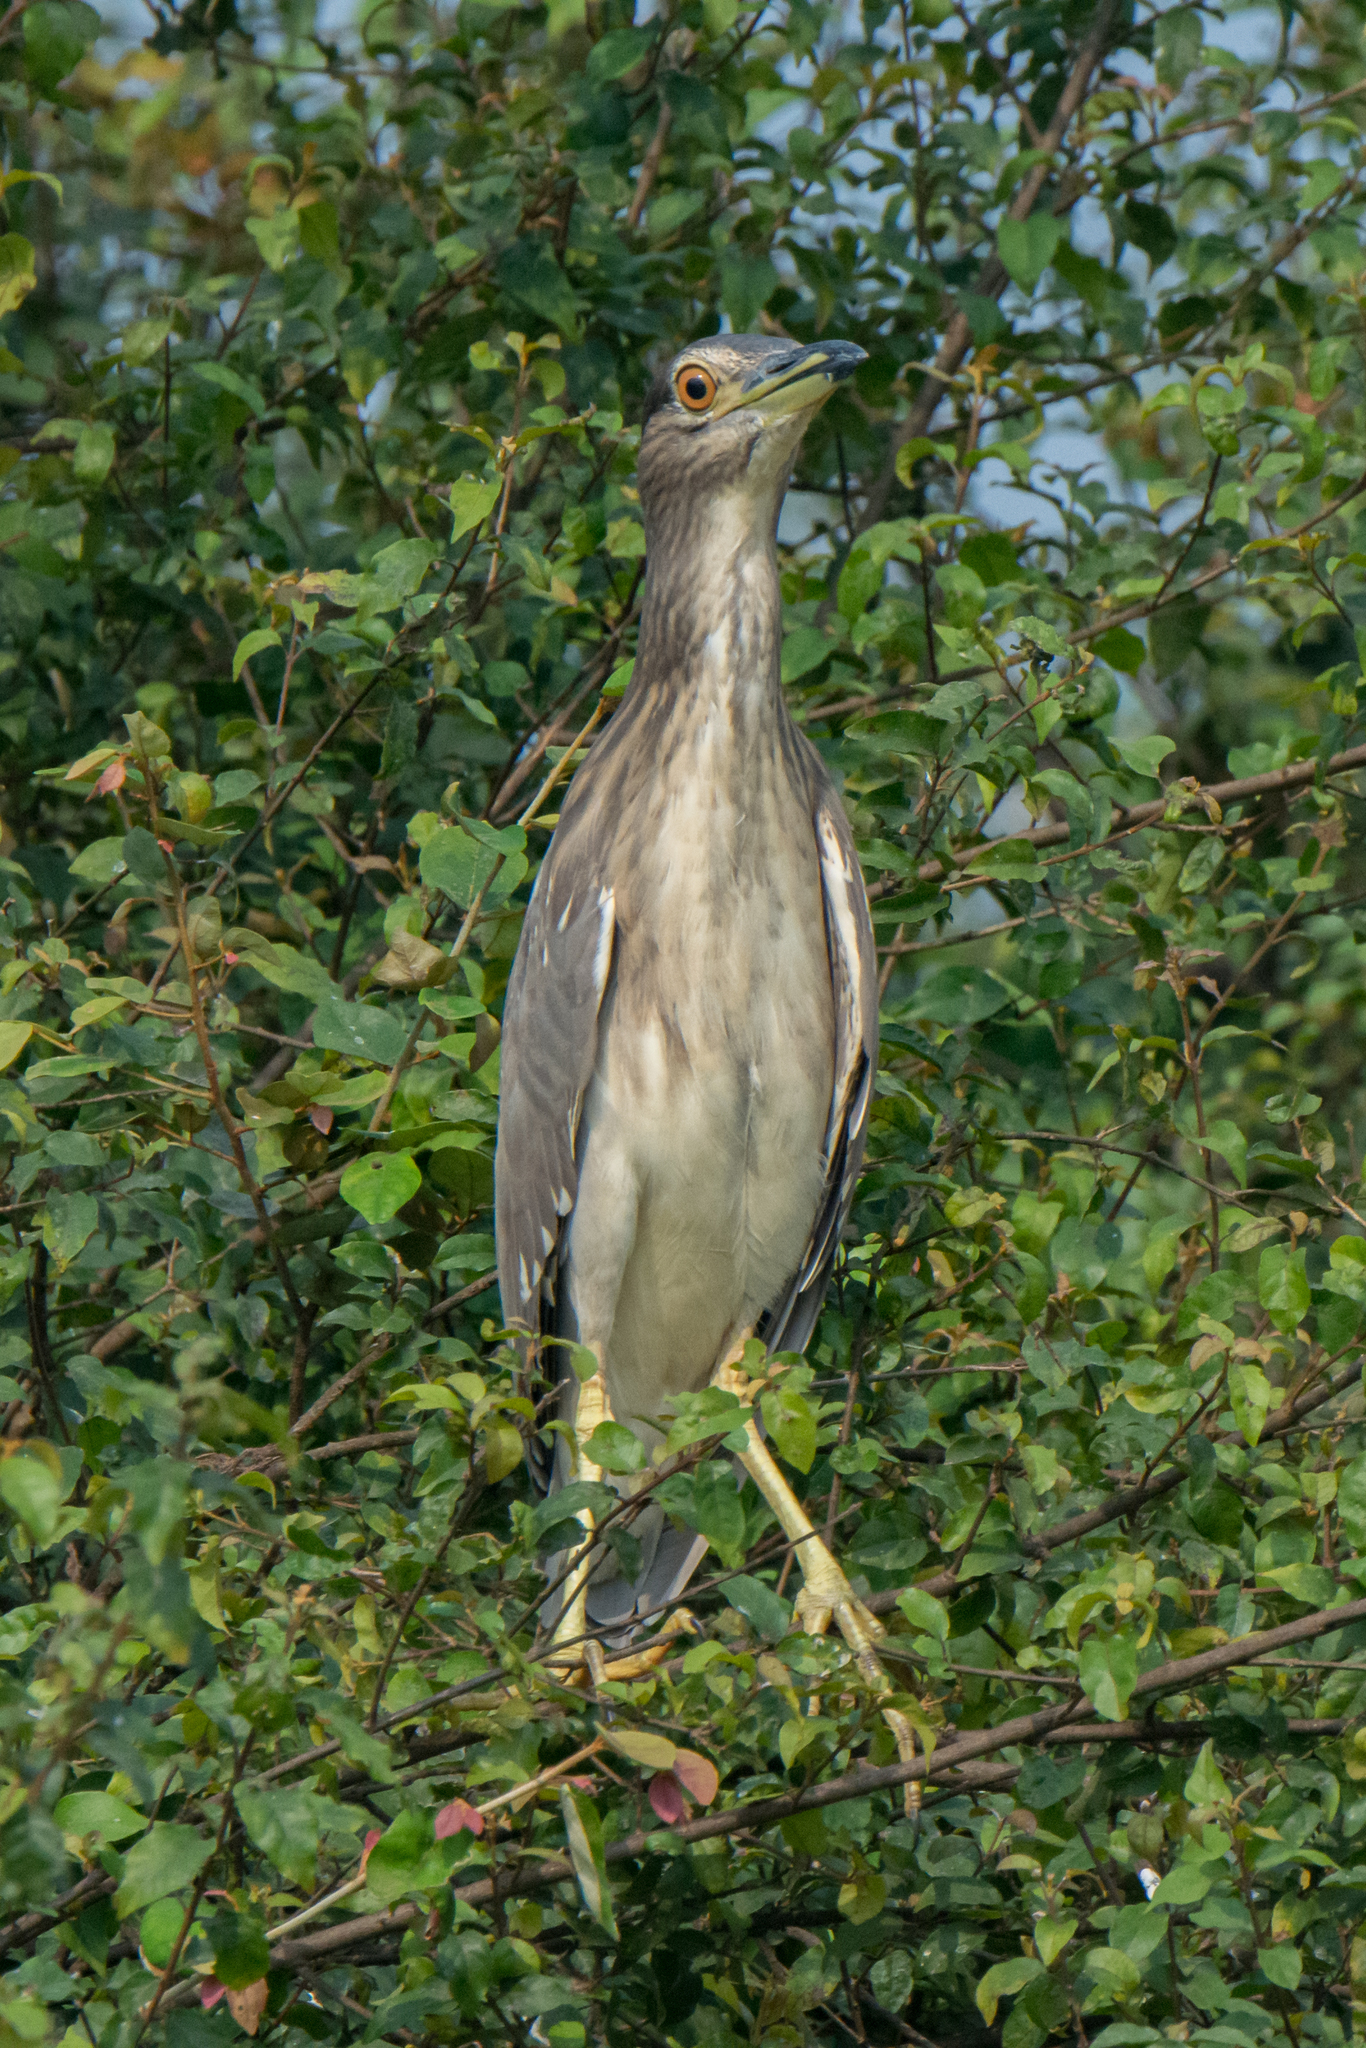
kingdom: Animalia
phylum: Chordata
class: Aves
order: Pelecaniformes
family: Ardeidae
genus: Nycticorax
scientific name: Nycticorax nycticorax
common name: Black-crowned night heron
